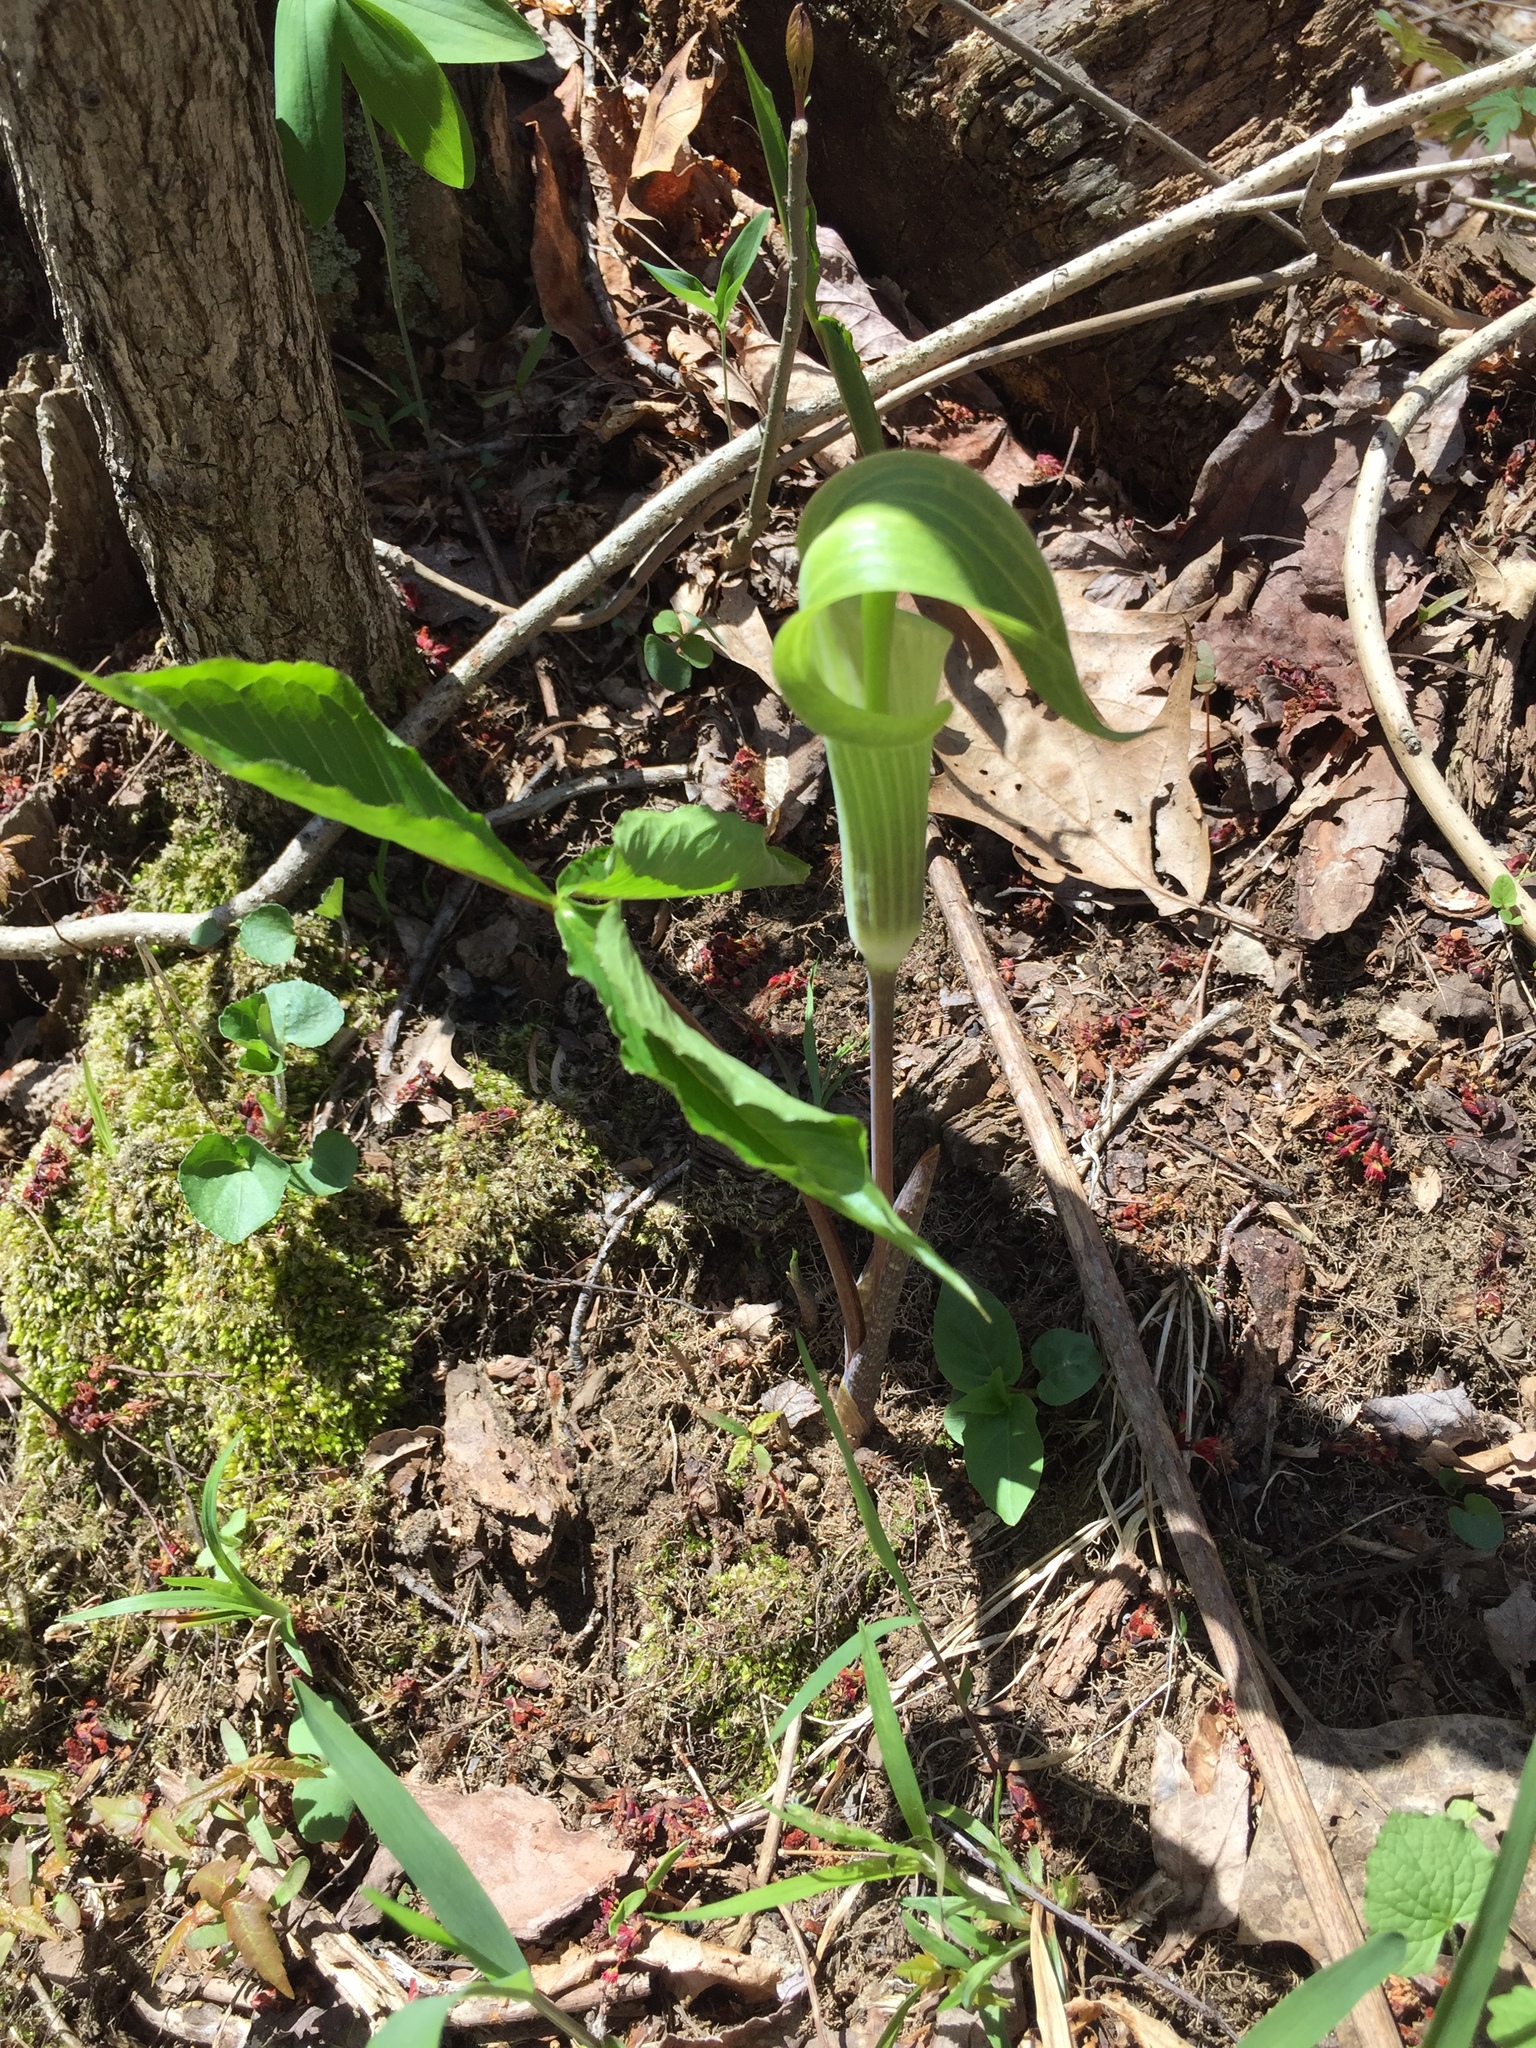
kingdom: Plantae
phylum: Tracheophyta
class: Liliopsida
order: Alismatales
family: Araceae
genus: Arisaema
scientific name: Arisaema triphyllum
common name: Jack-in-the-pulpit
